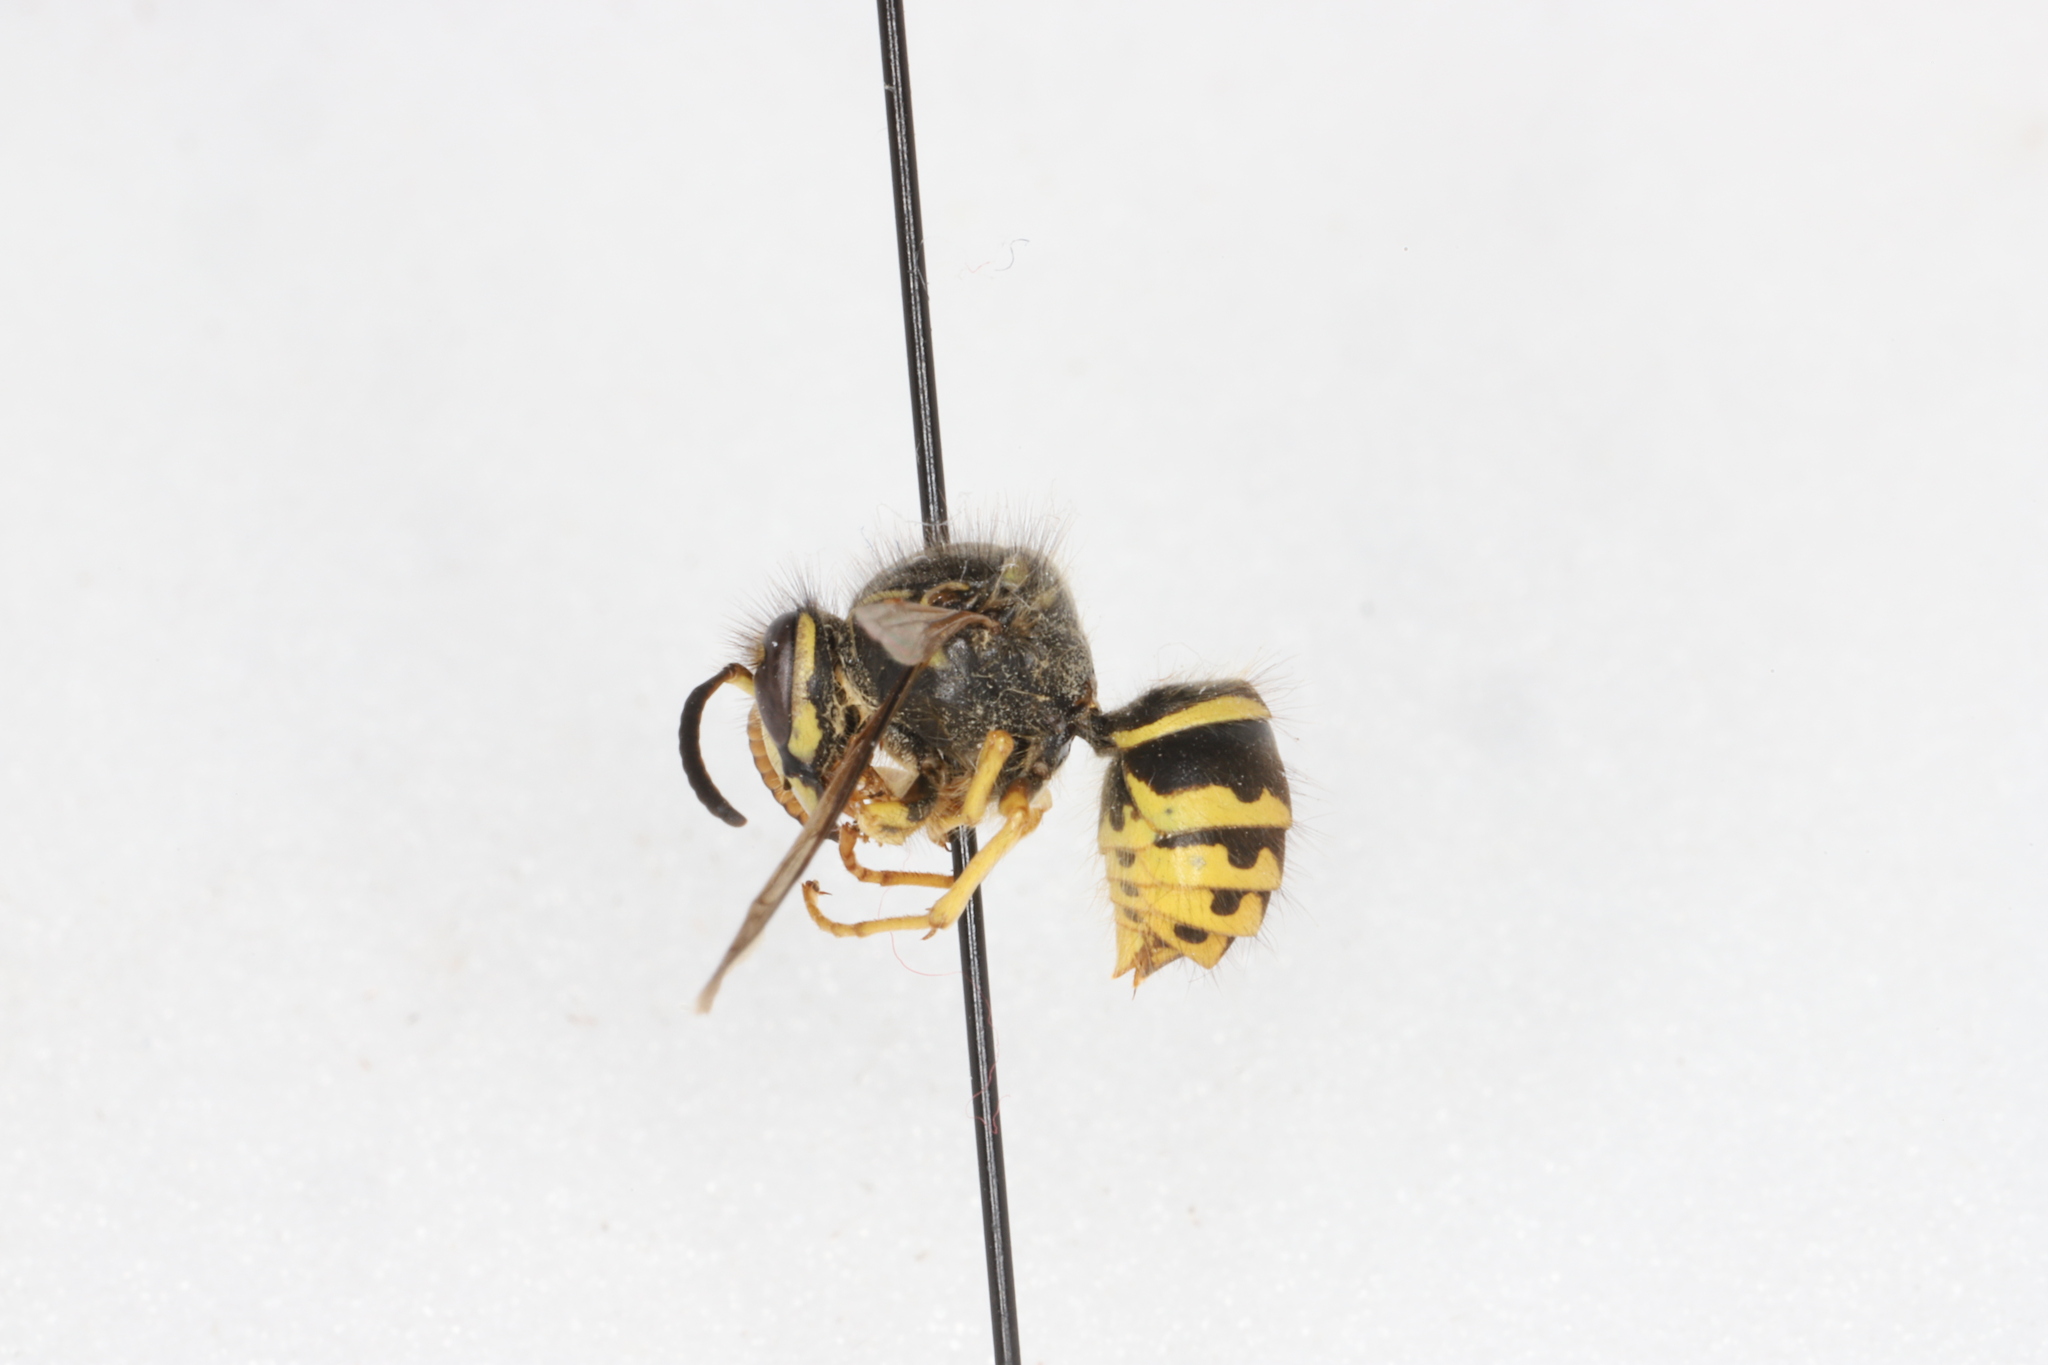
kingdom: Animalia
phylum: Arthropoda
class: Insecta
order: Hymenoptera
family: Vespidae
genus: Dolichovespula
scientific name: Dolichovespula arenaria
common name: Aerial yellowjacket
